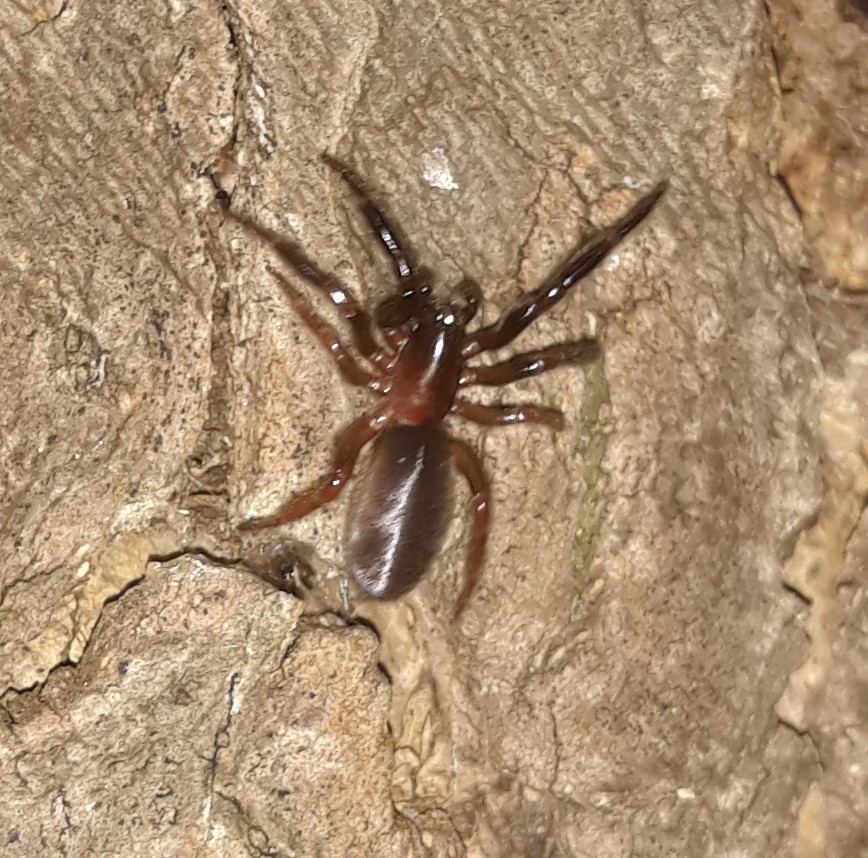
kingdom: Animalia
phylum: Arthropoda
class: Arachnida
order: Araneae
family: Segestriidae
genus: Ariadna
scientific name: Ariadna bicolor
